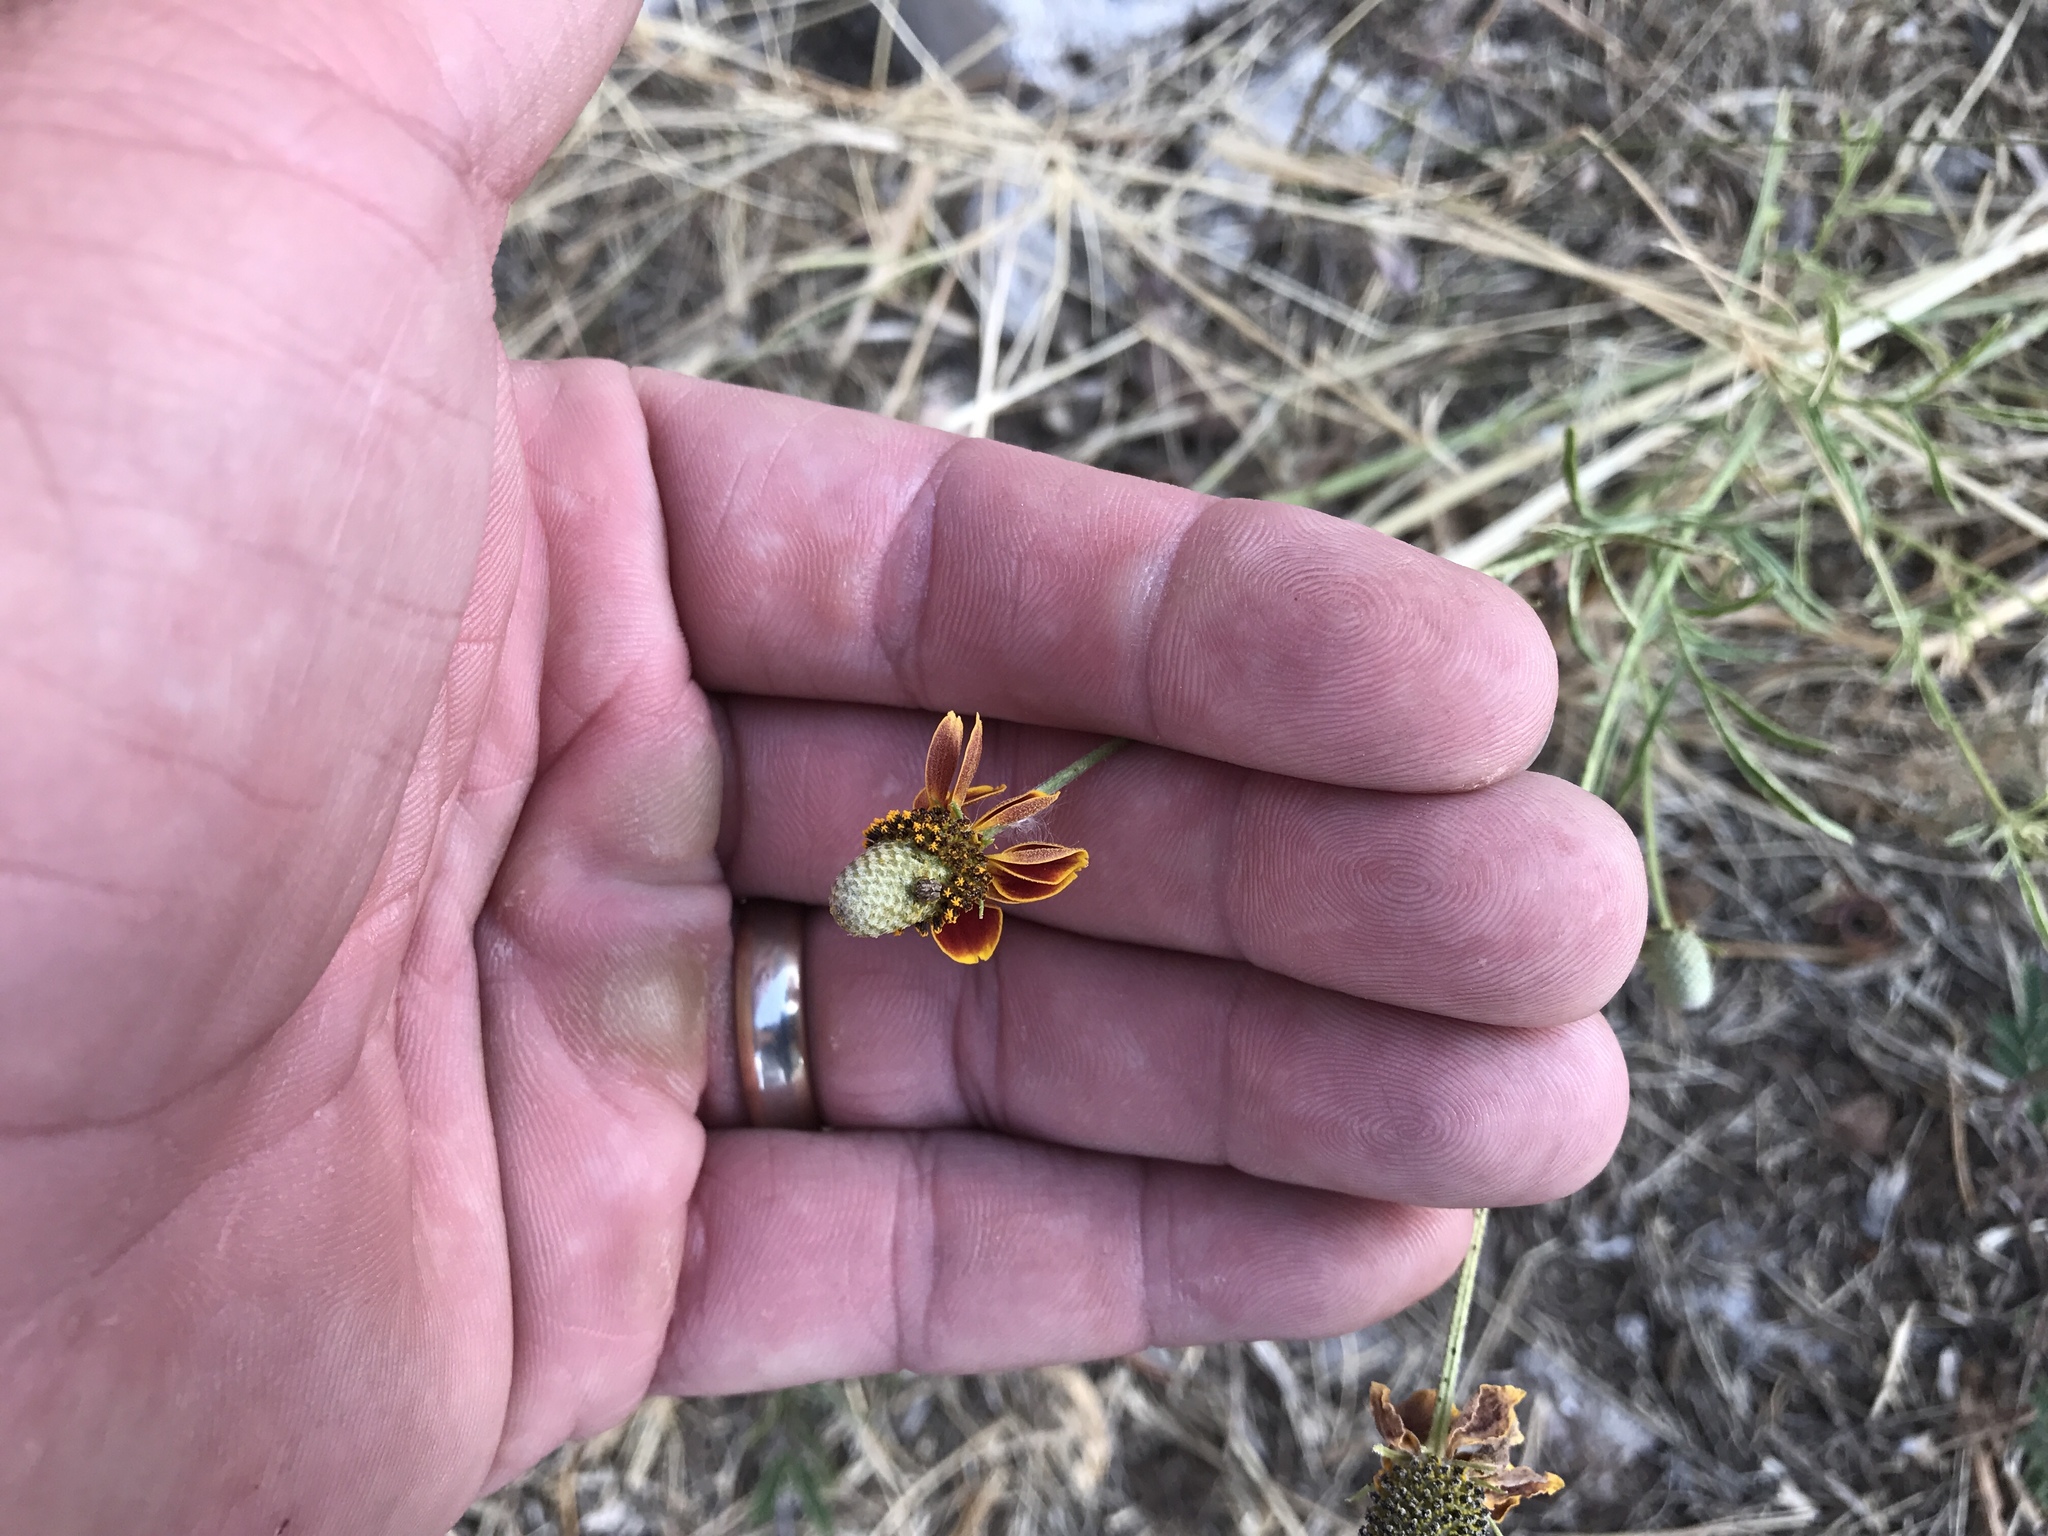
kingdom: Plantae
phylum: Tracheophyta
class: Magnoliopsida
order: Asterales
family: Asteraceae
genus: Ratibida
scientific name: Ratibida columnifera
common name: Prairie coneflower
